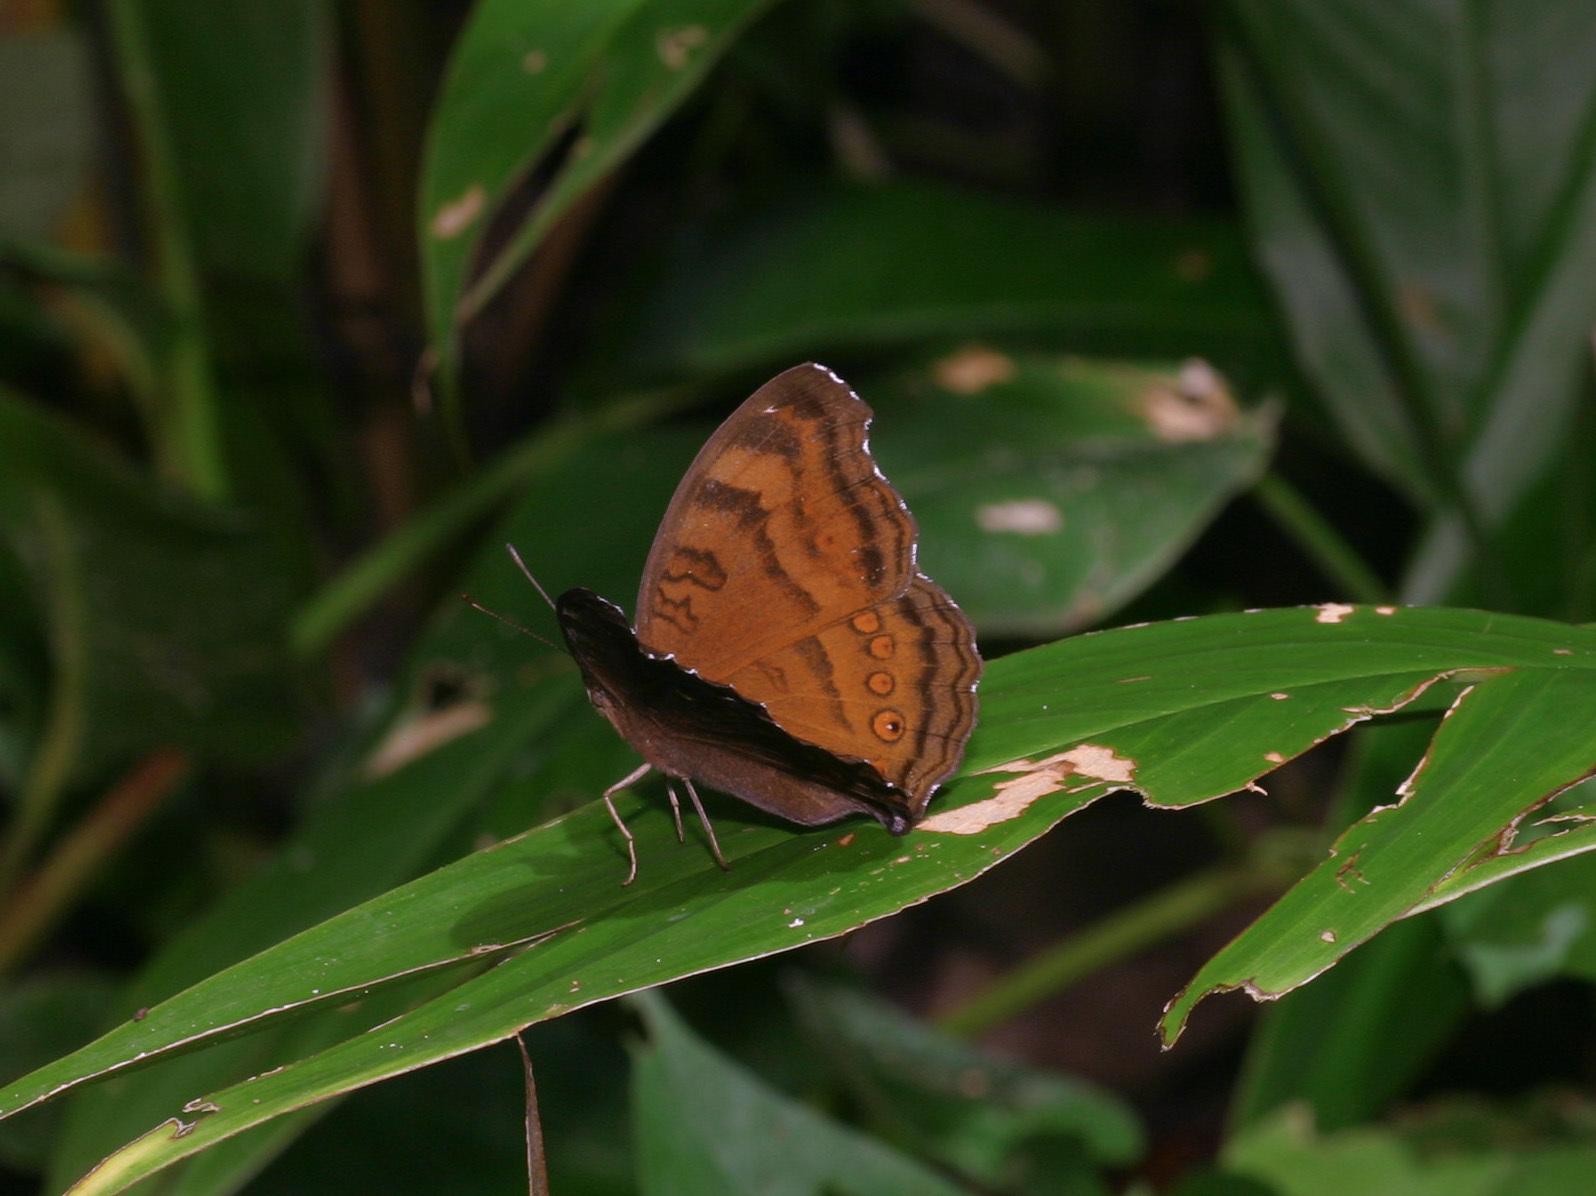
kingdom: Animalia
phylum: Arthropoda
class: Insecta
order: Lepidoptera
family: Nymphalidae
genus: Junonia
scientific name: Junonia hedonia
